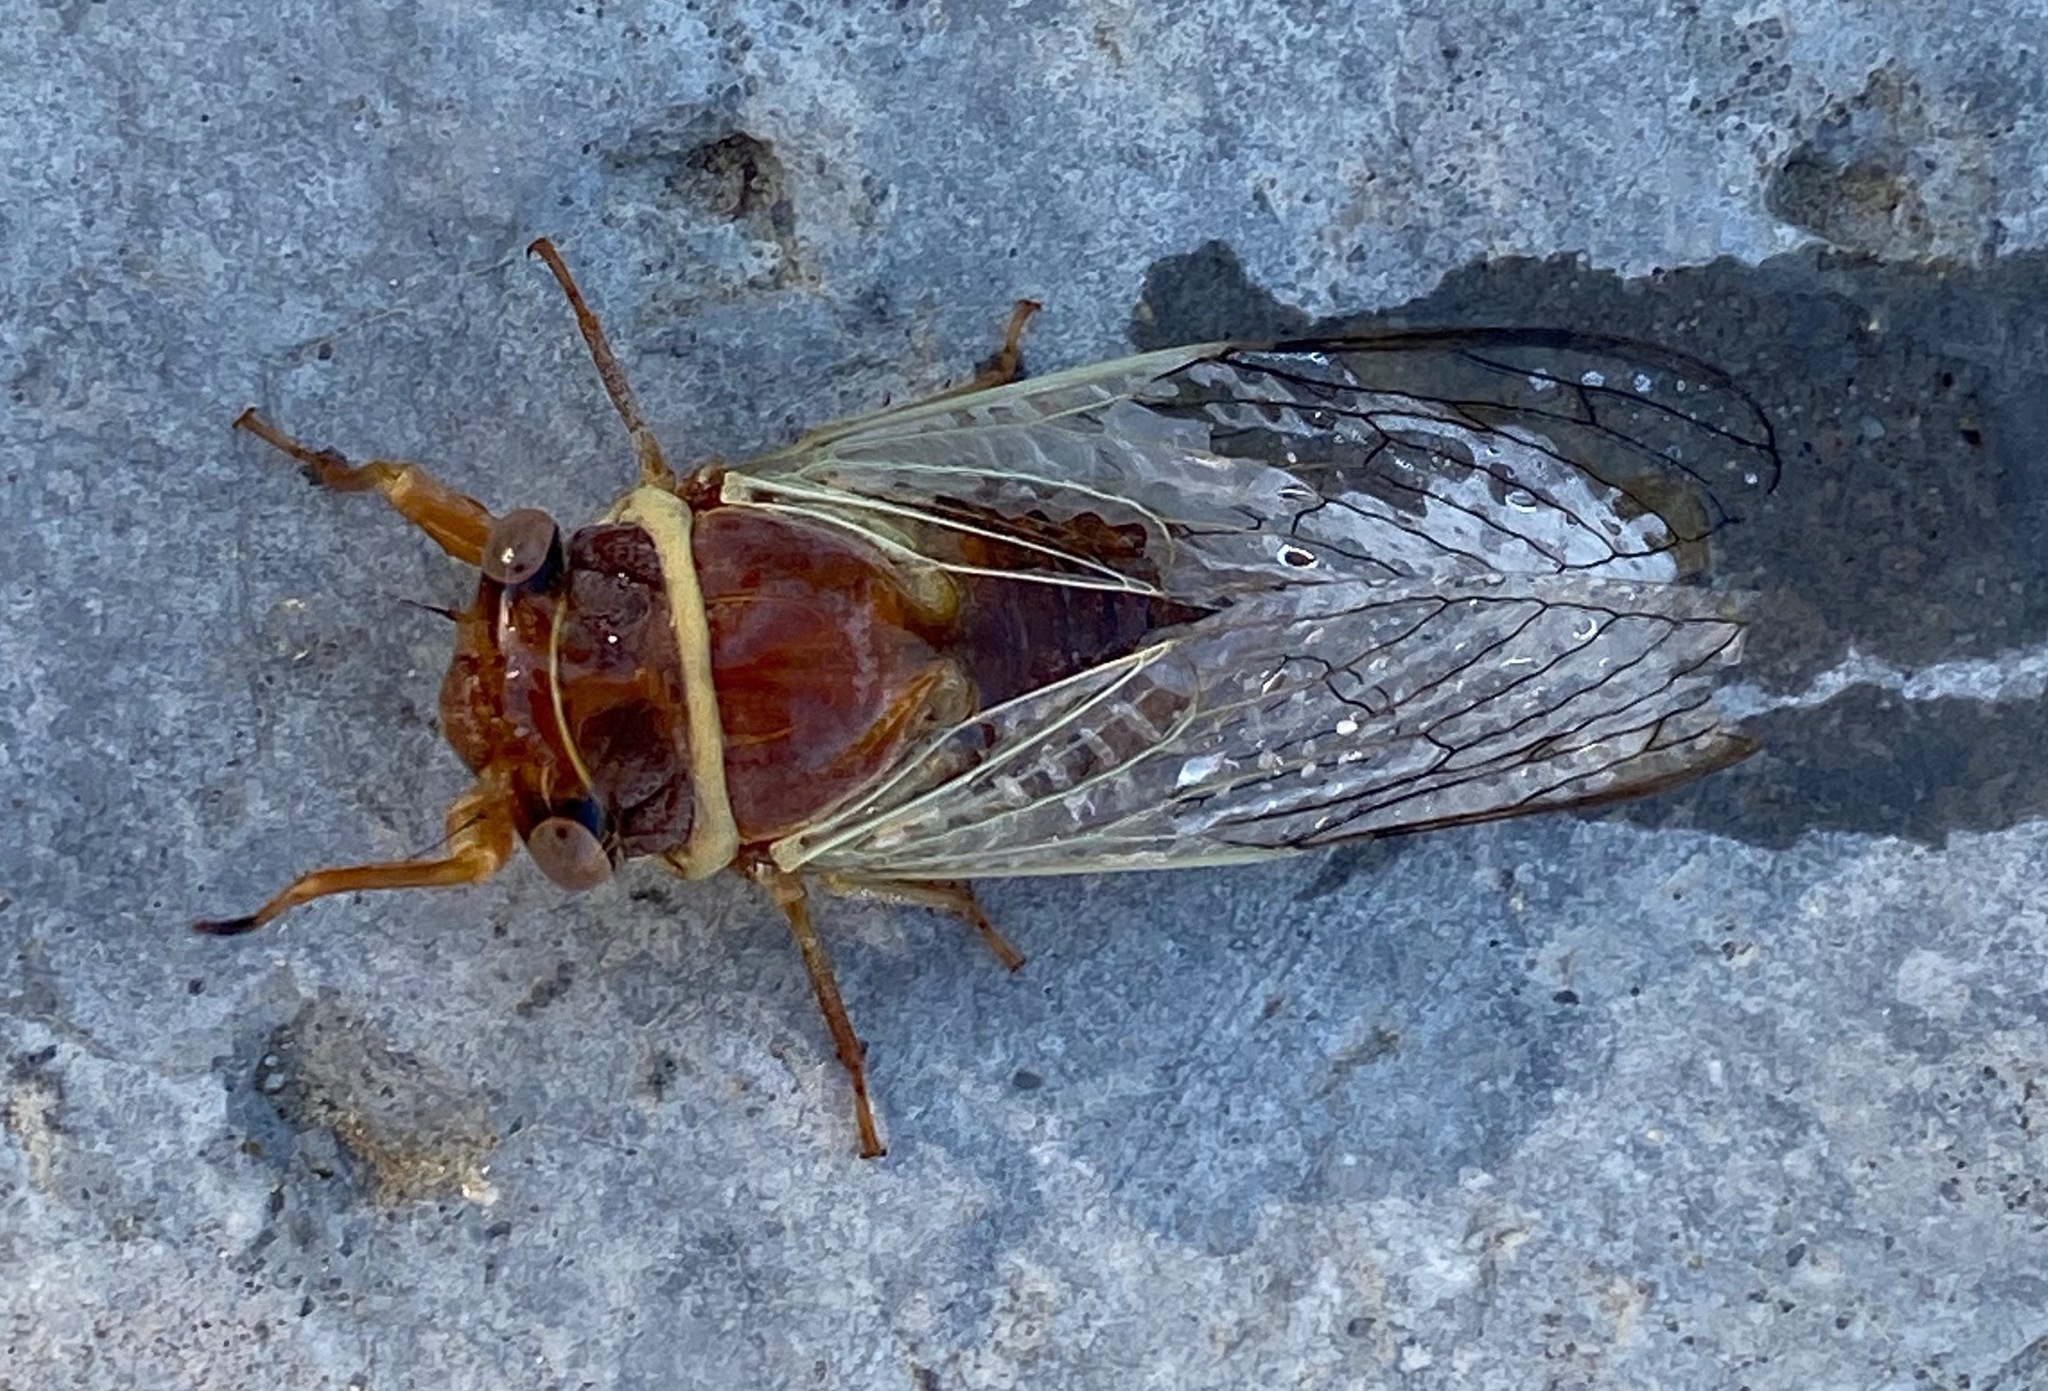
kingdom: Animalia
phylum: Arthropoda
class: Insecta
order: Hemiptera
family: Cicadidae
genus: Diceroprocta
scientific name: Diceroprocta apache
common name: Desert cicada
